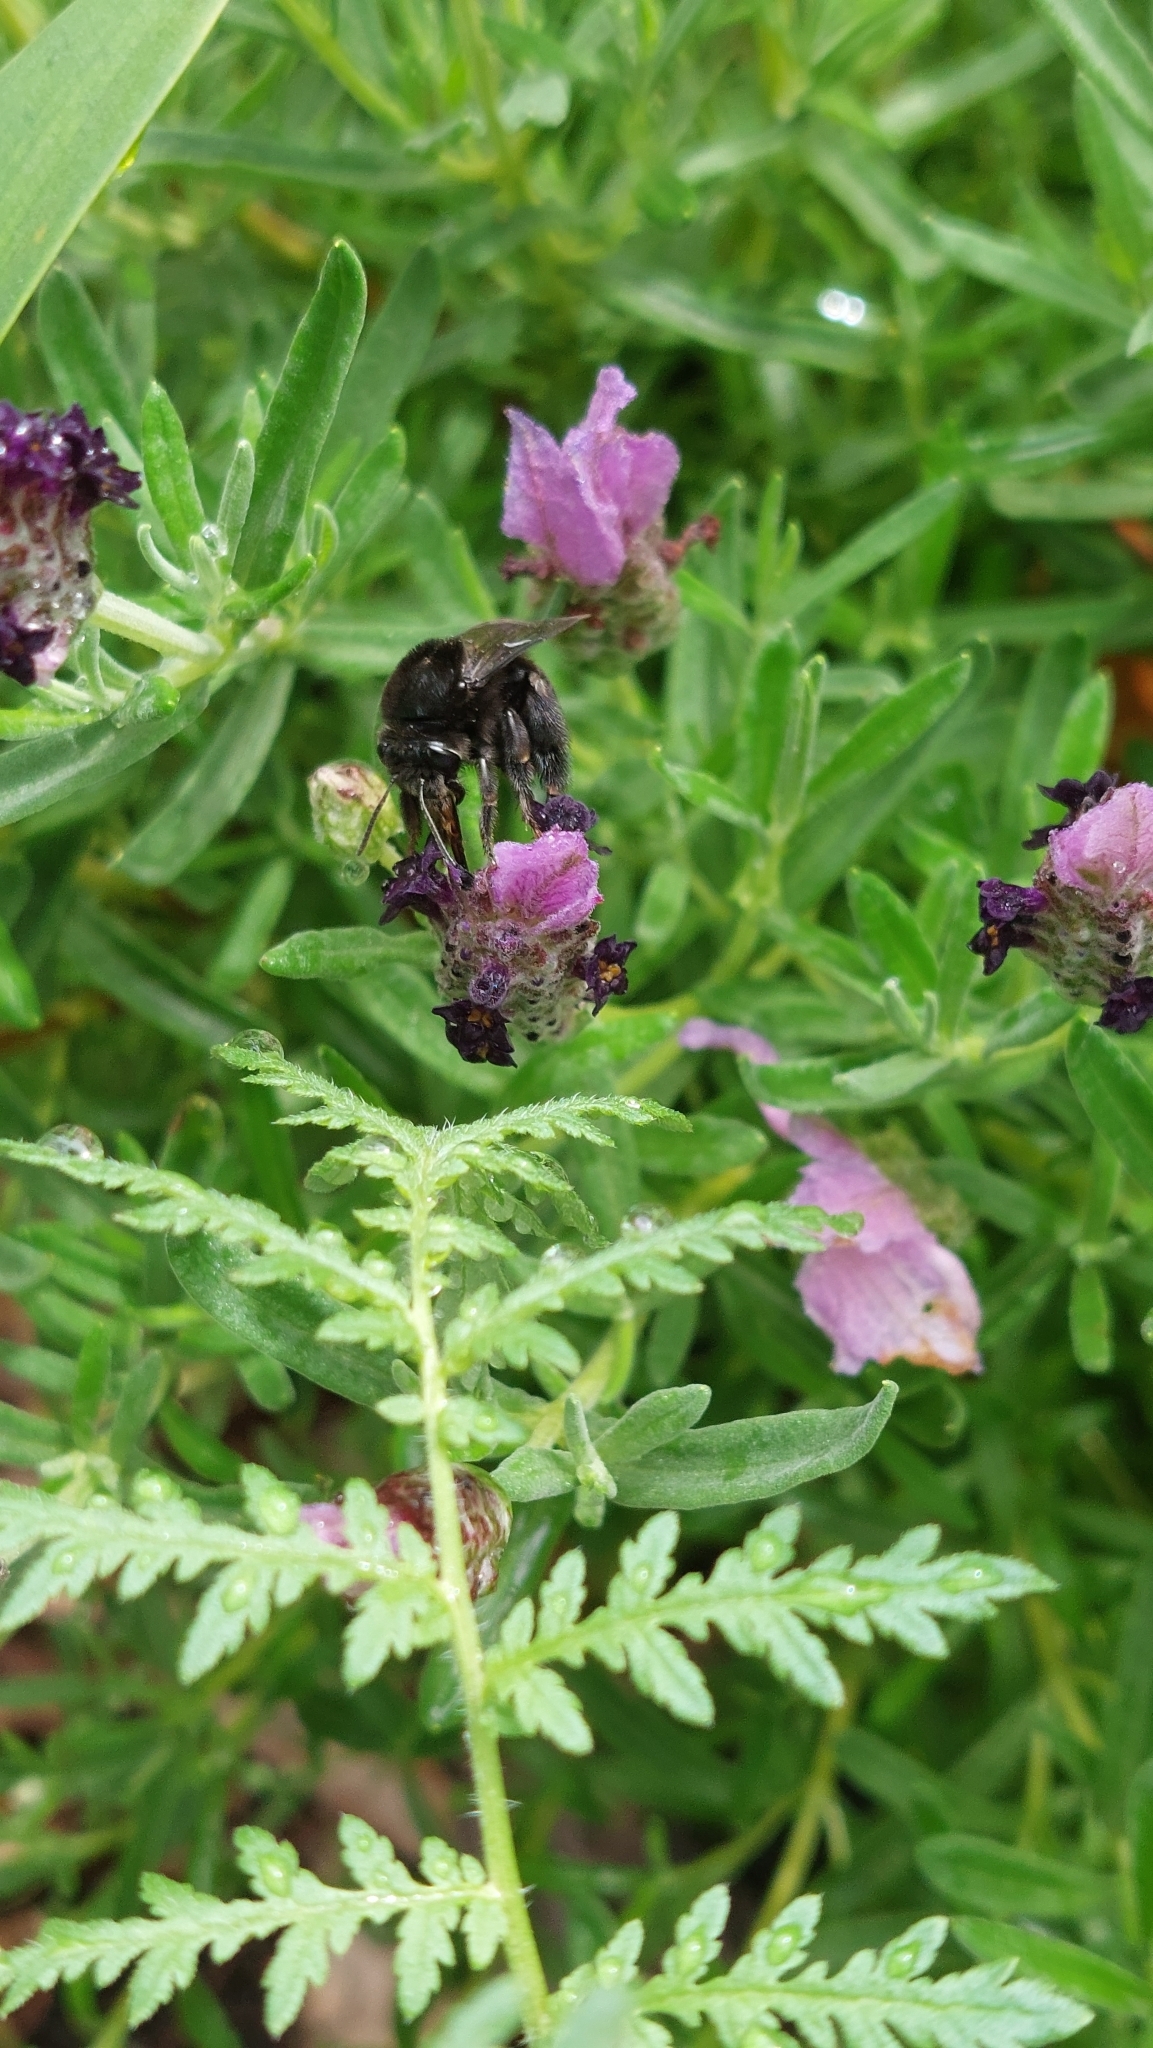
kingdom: Animalia
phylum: Arthropoda
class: Insecta
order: Hymenoptera
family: Apidae
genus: Thygater
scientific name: Thygater aethiops
